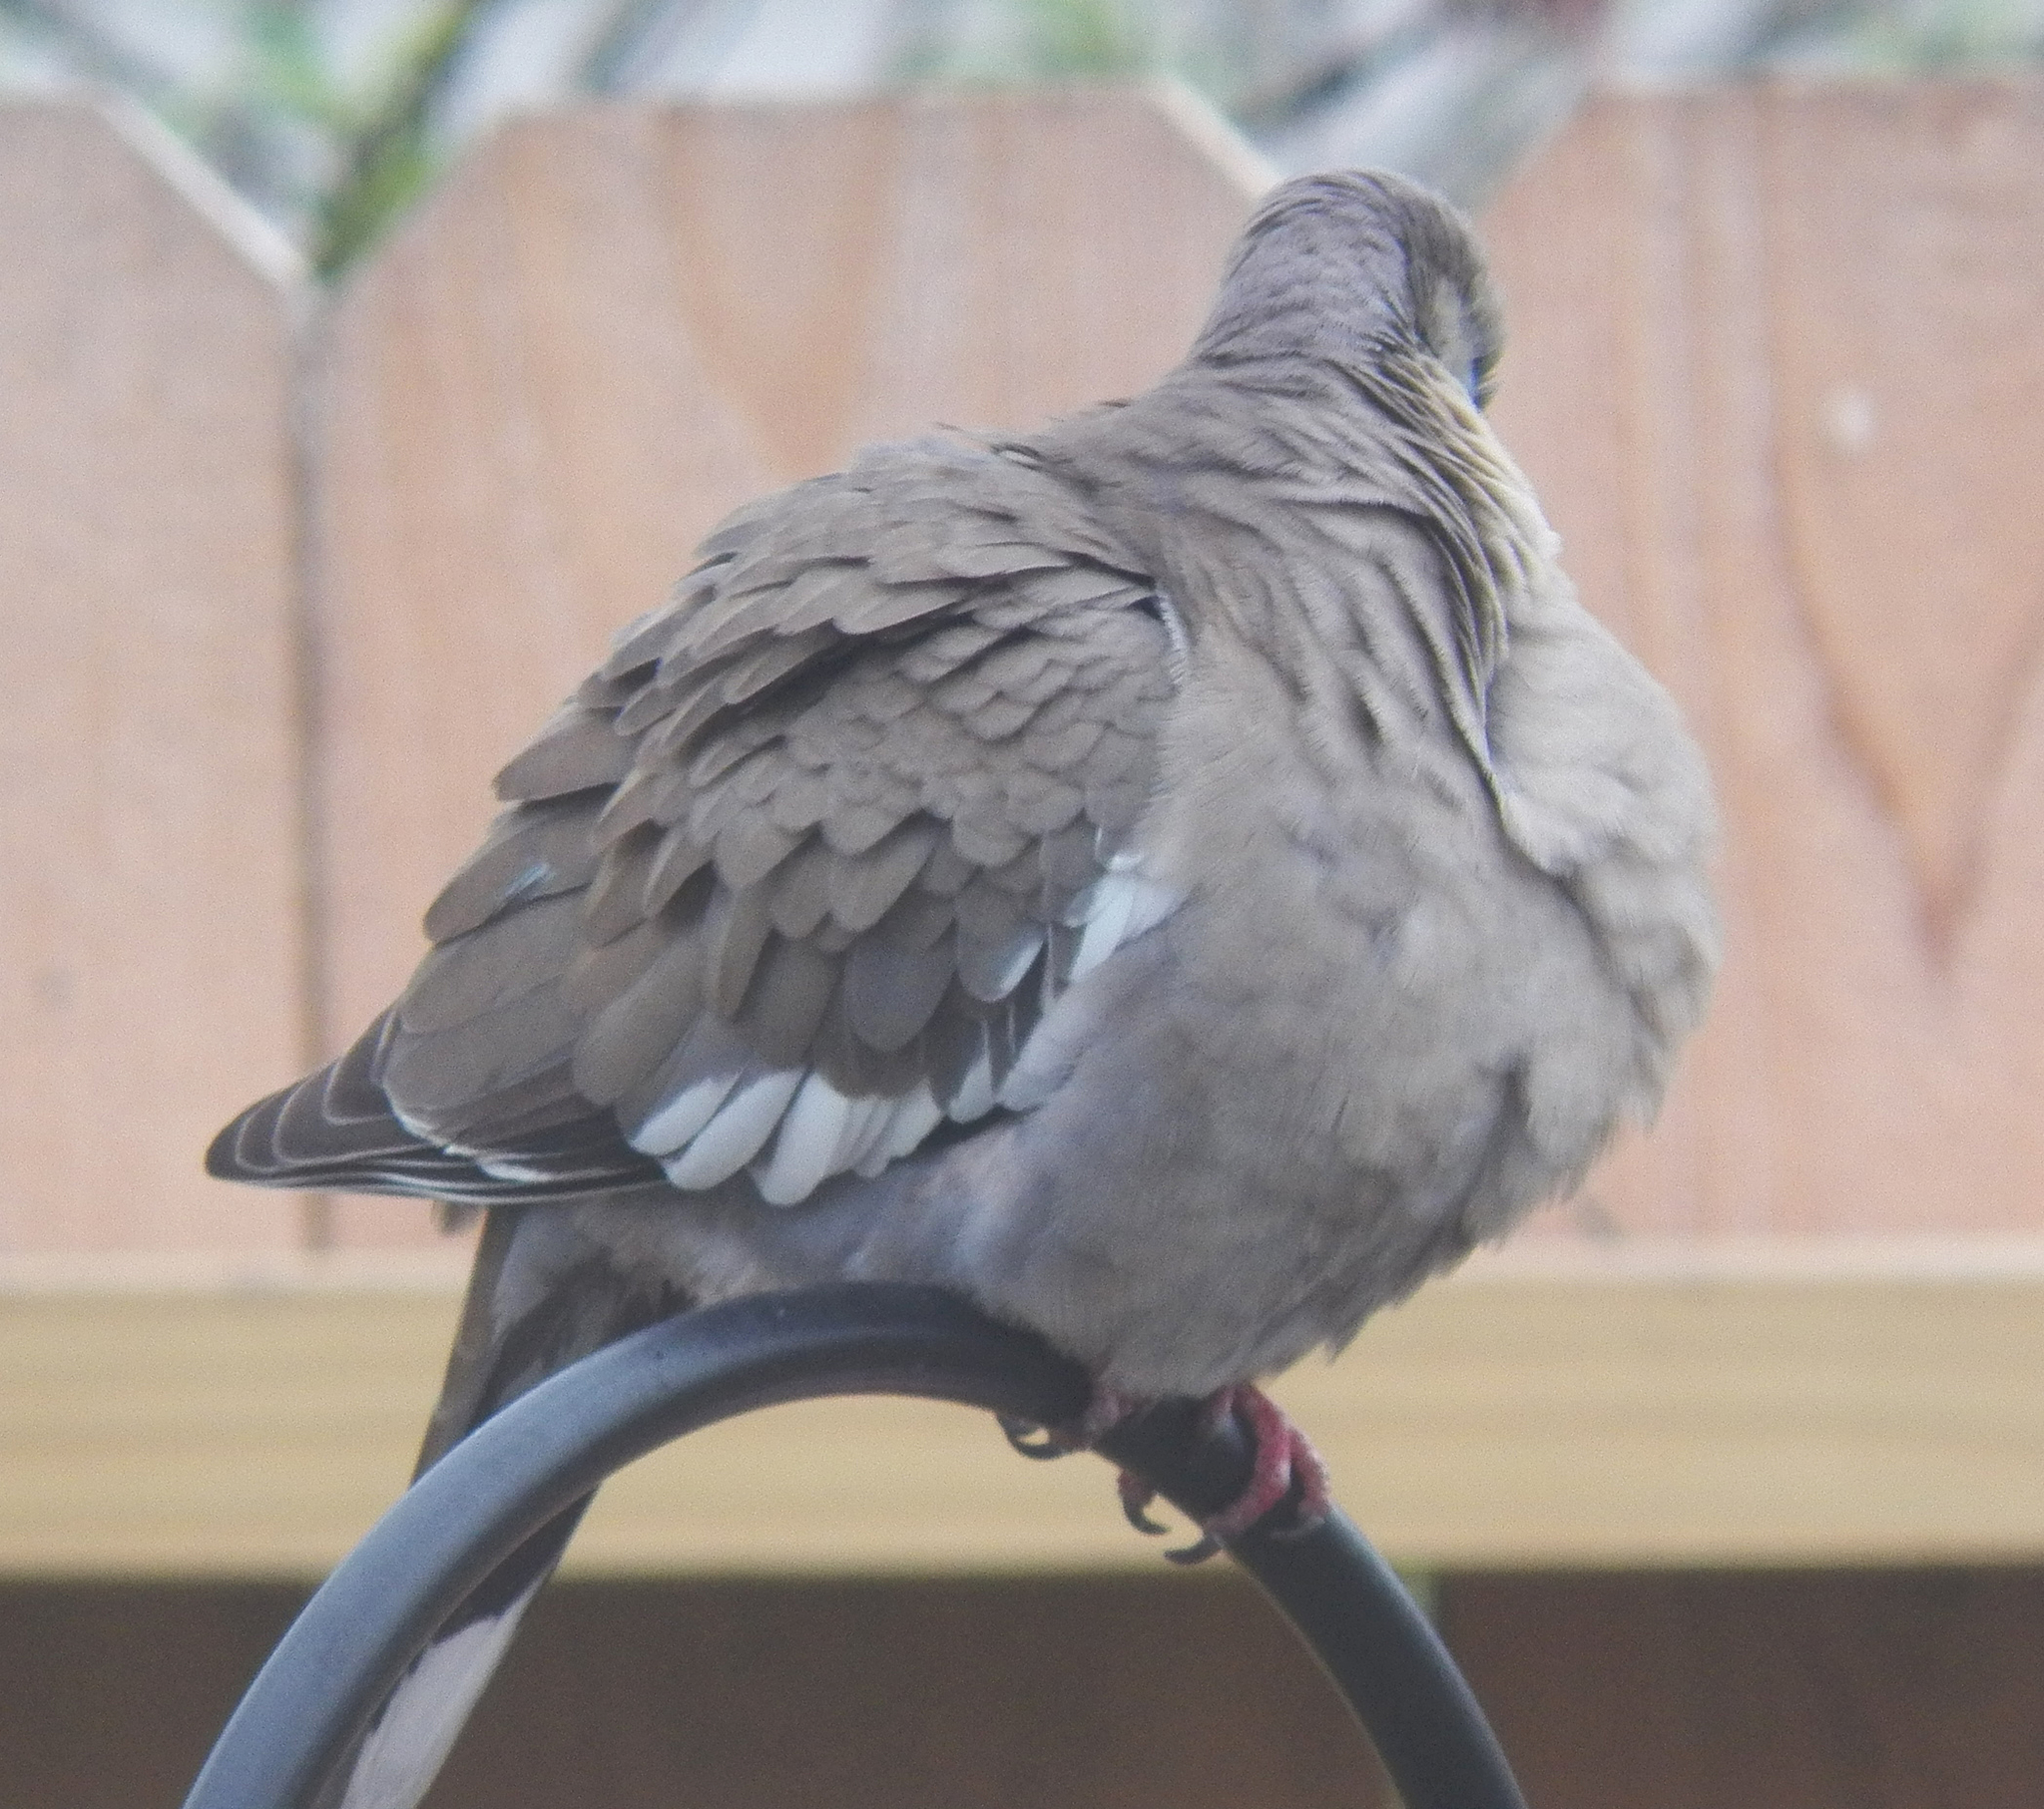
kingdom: Animalia
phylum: Chordata
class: Aves
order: Columbiformes
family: Columbidae
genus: Zenaida
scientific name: Zenaida asiatica
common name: White-winged dove
